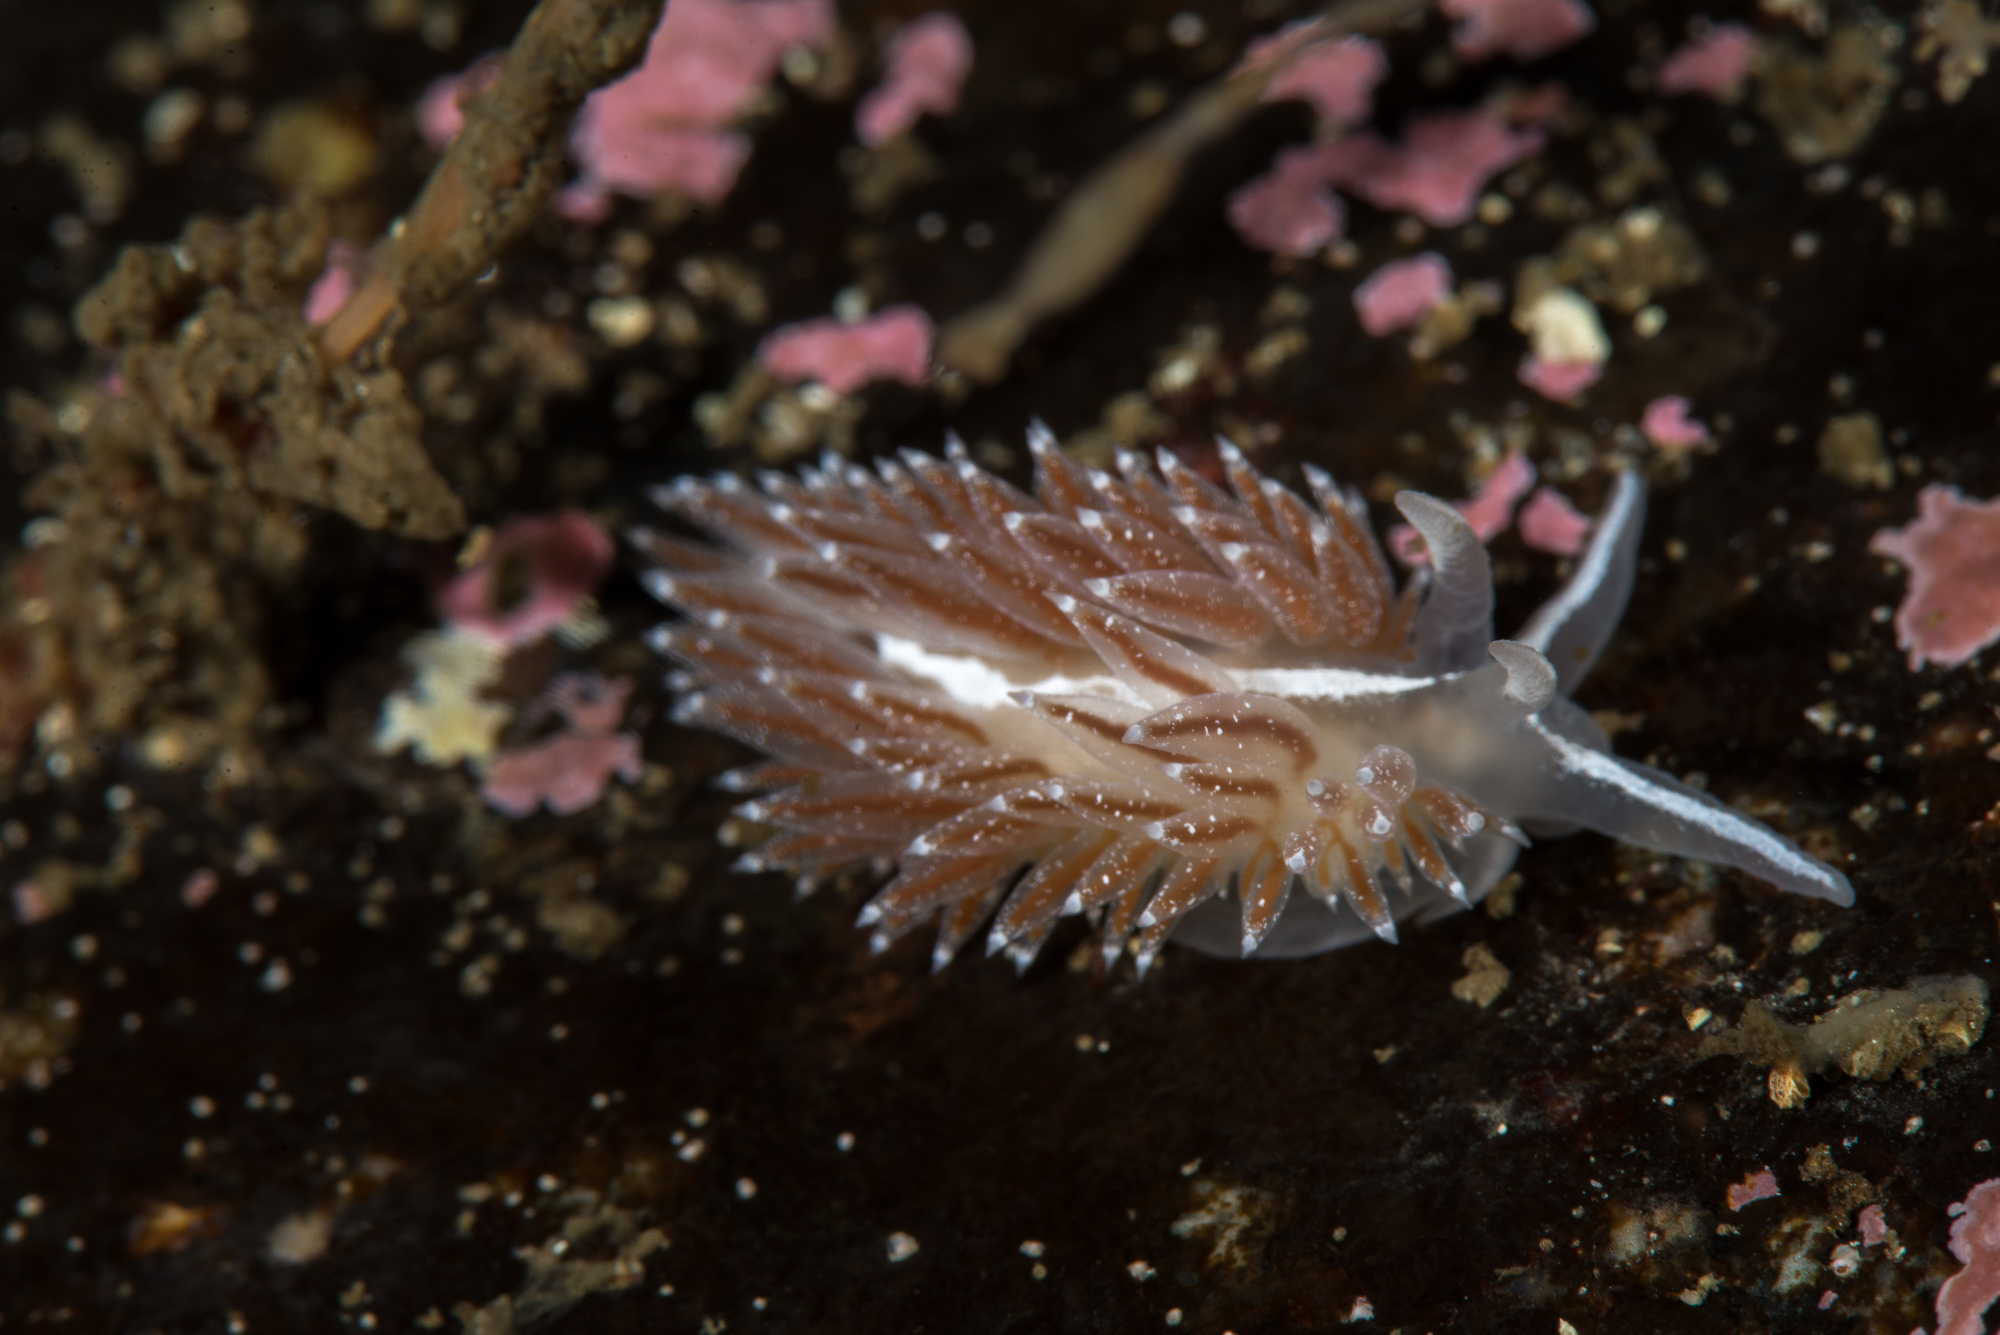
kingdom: Animalia
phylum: Mollusca
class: Gastropoda
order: Nudibranchia
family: Coryphellidae
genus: Coryphella
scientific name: Coryphella orjani
